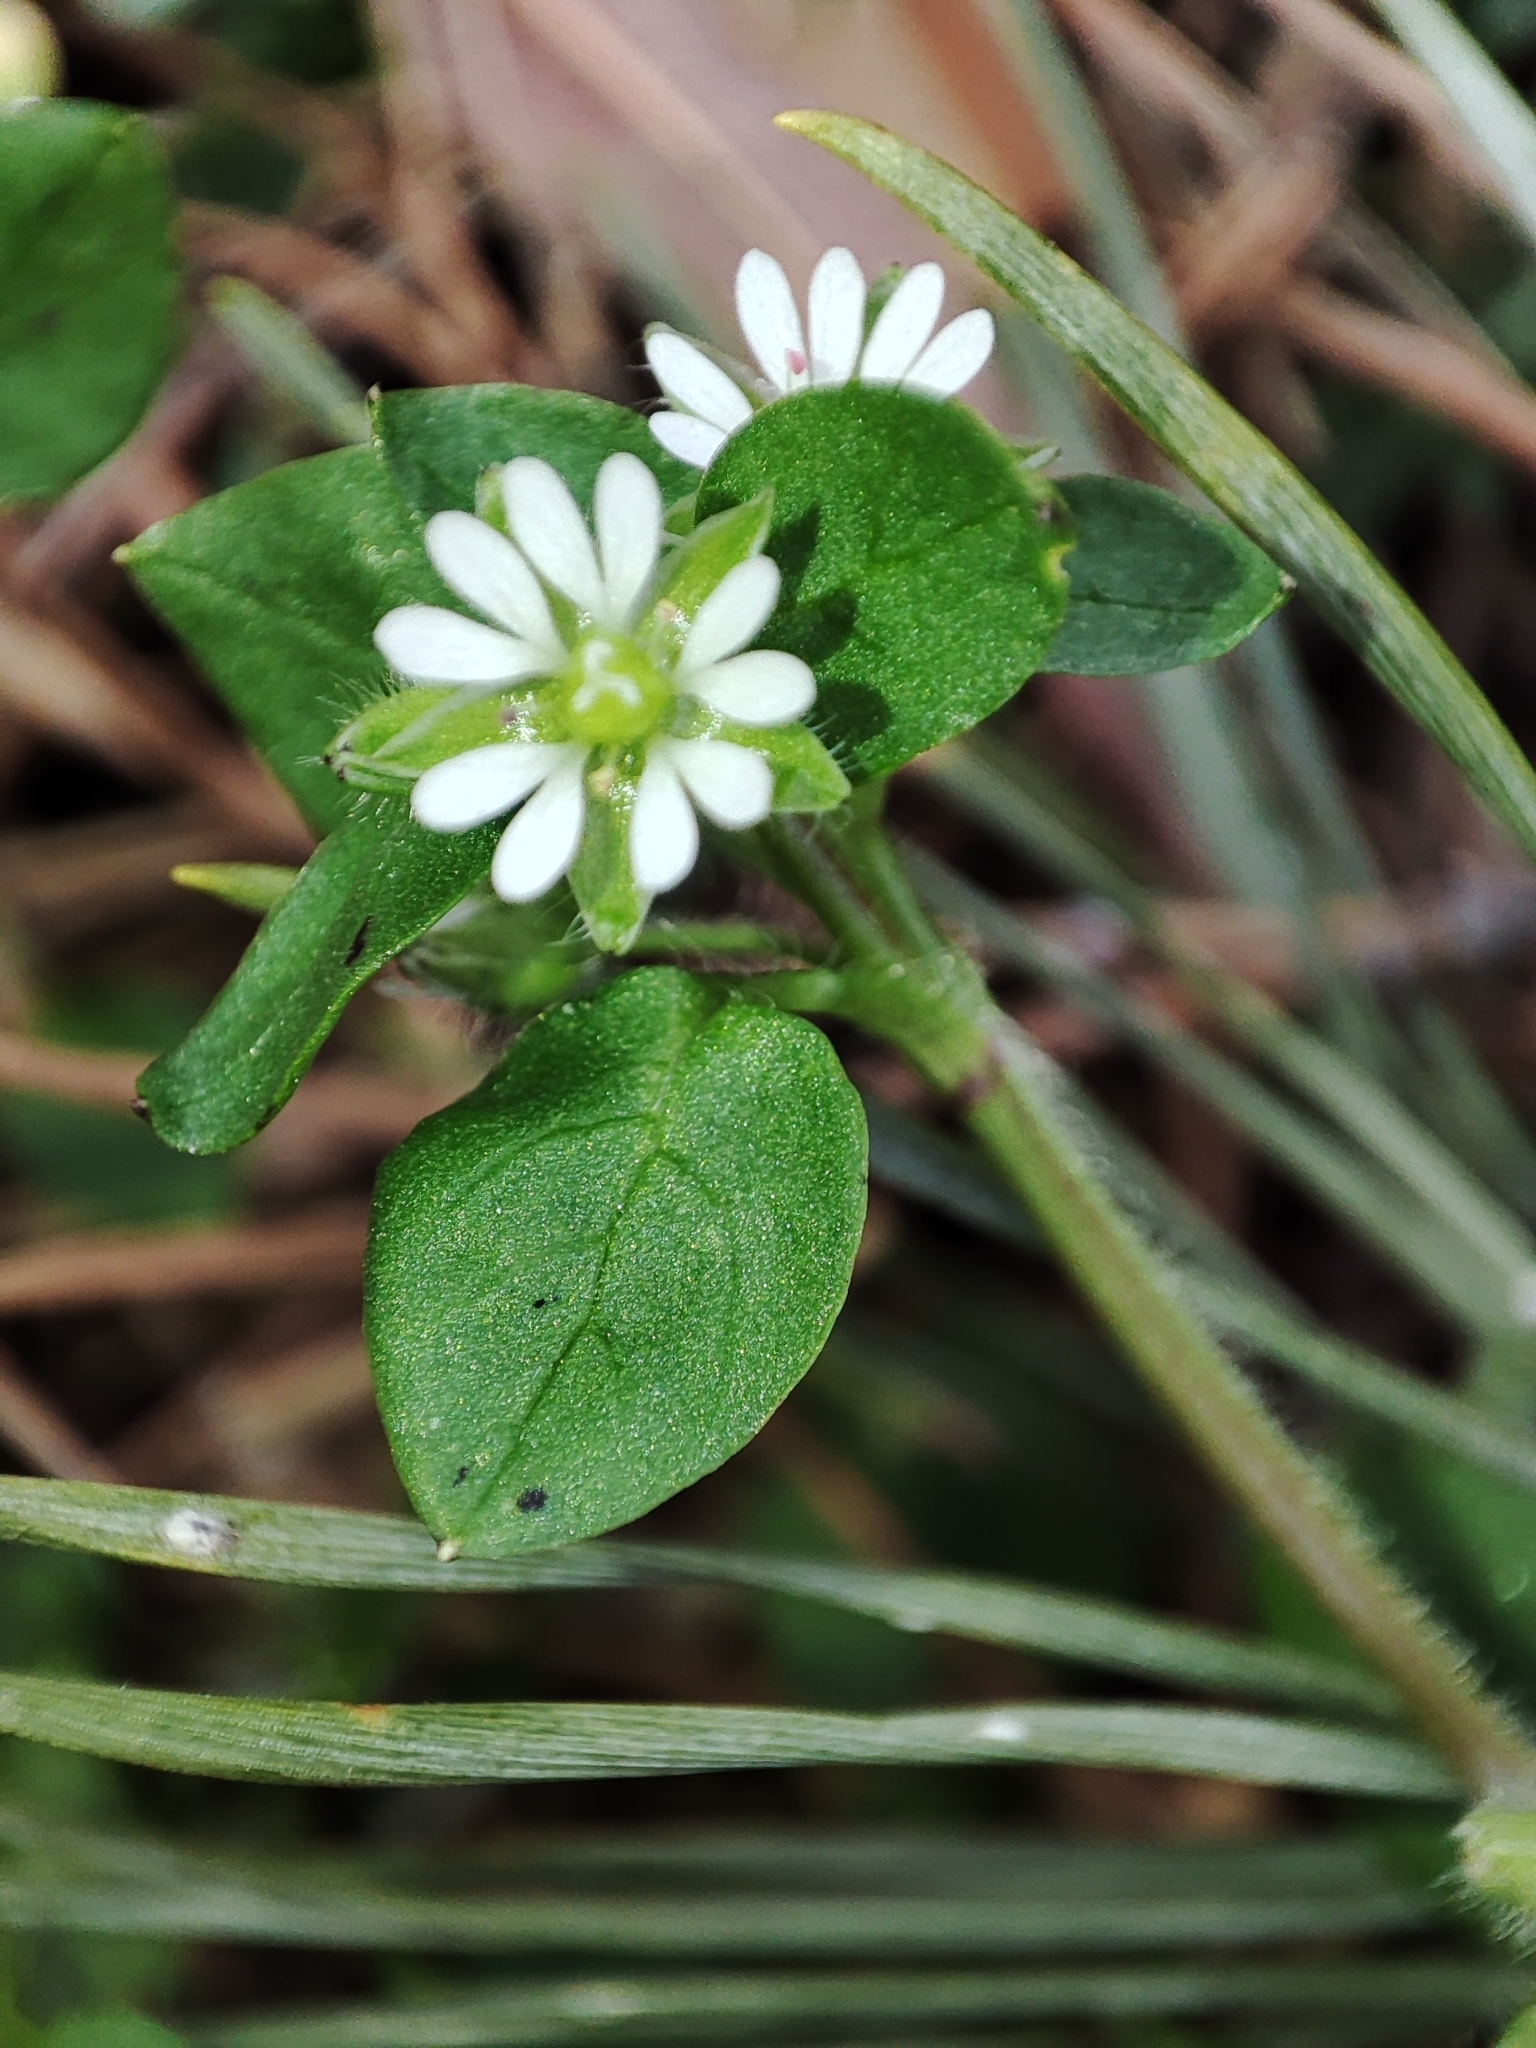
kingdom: Plantae
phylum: Tracheophyta
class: Magnoliopsida
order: Caryophyllales
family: Caryophyllaceae
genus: Stellaria
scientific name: Stellaria media
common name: Common chickweed
